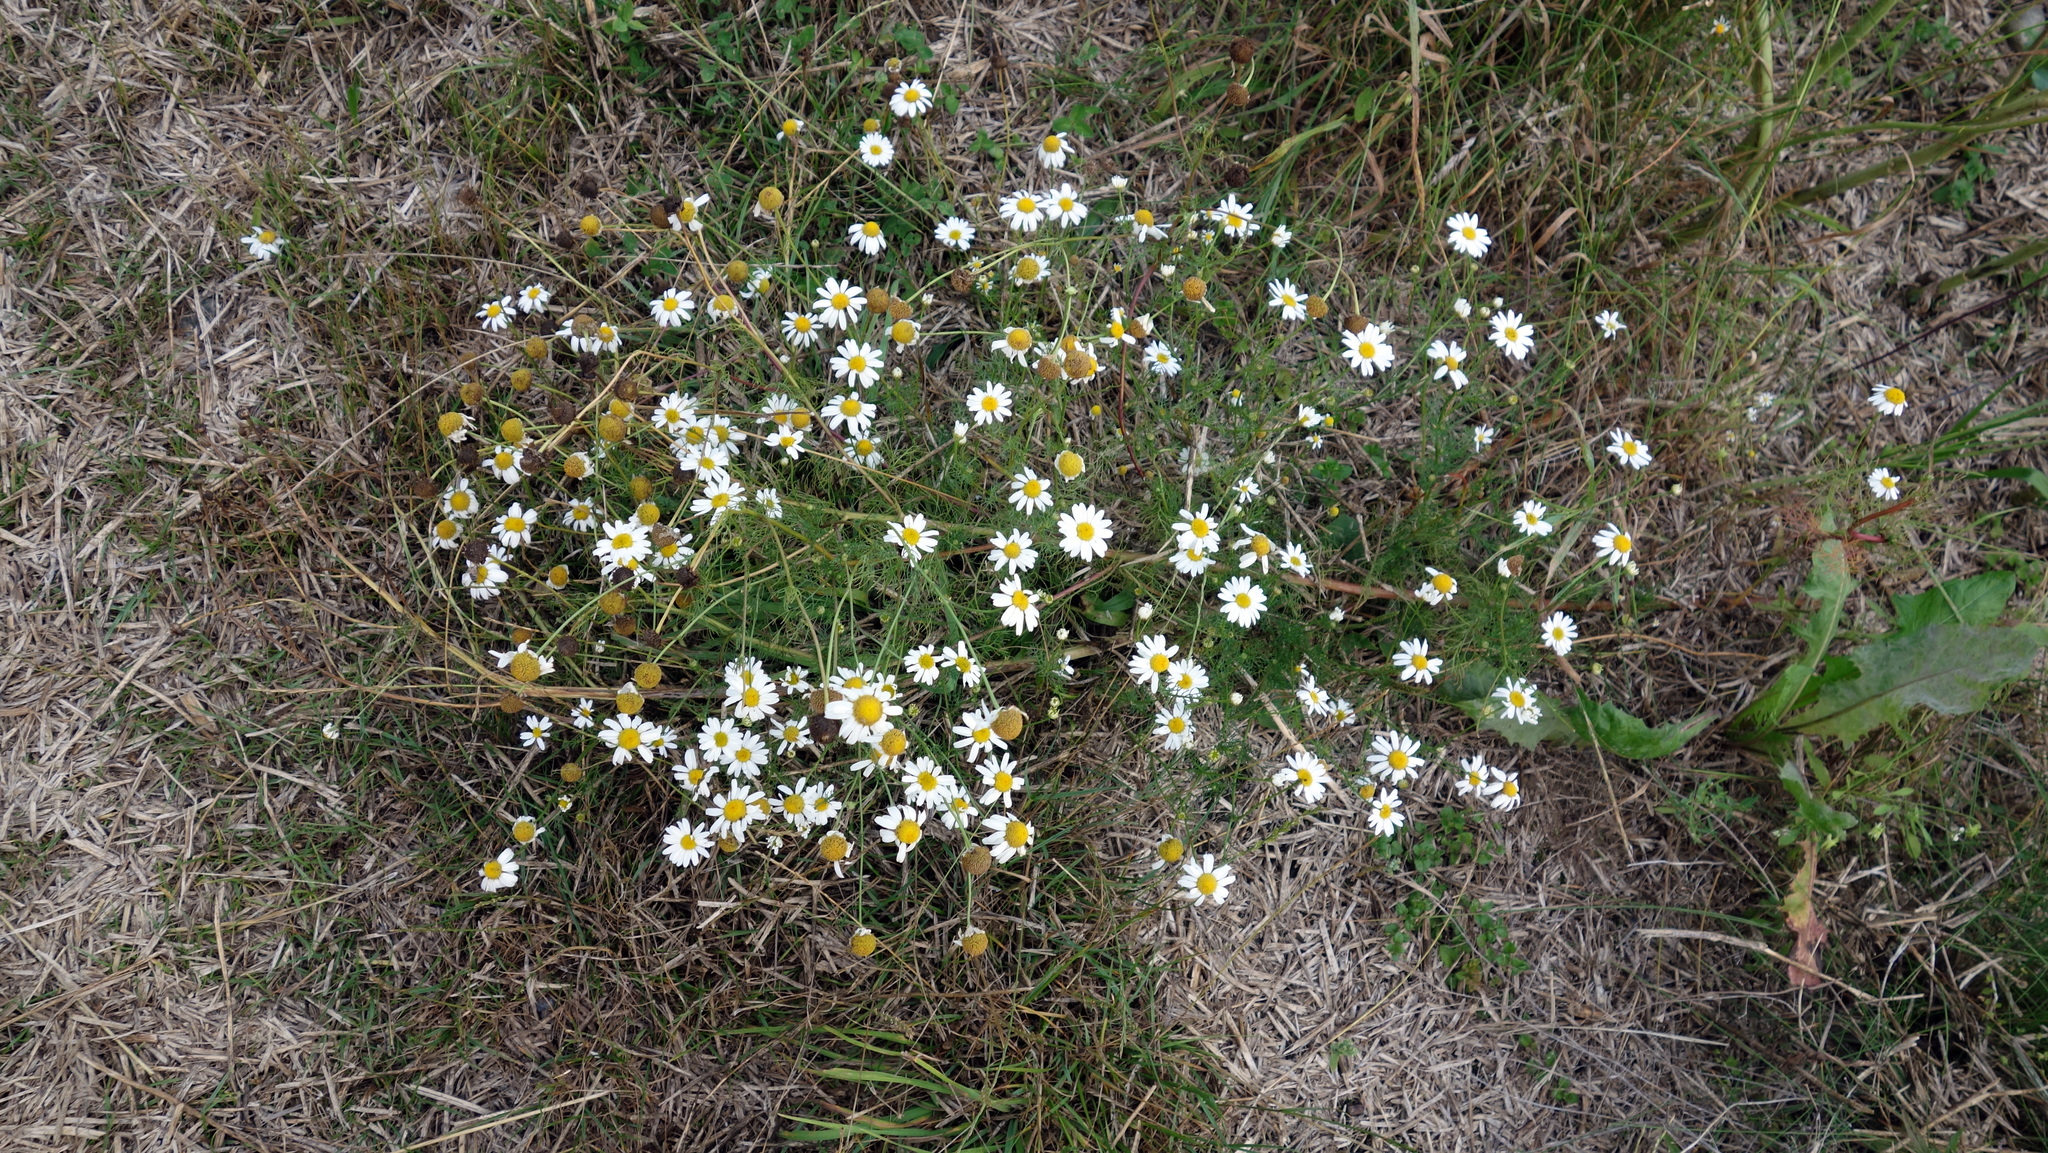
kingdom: Plantae
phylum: Tracheophyta
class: Magnoliopsida
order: Asterales
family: Asteraceae
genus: Tripleurospermum
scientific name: Tripleurospermum inodorum
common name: Scentless mayweed
